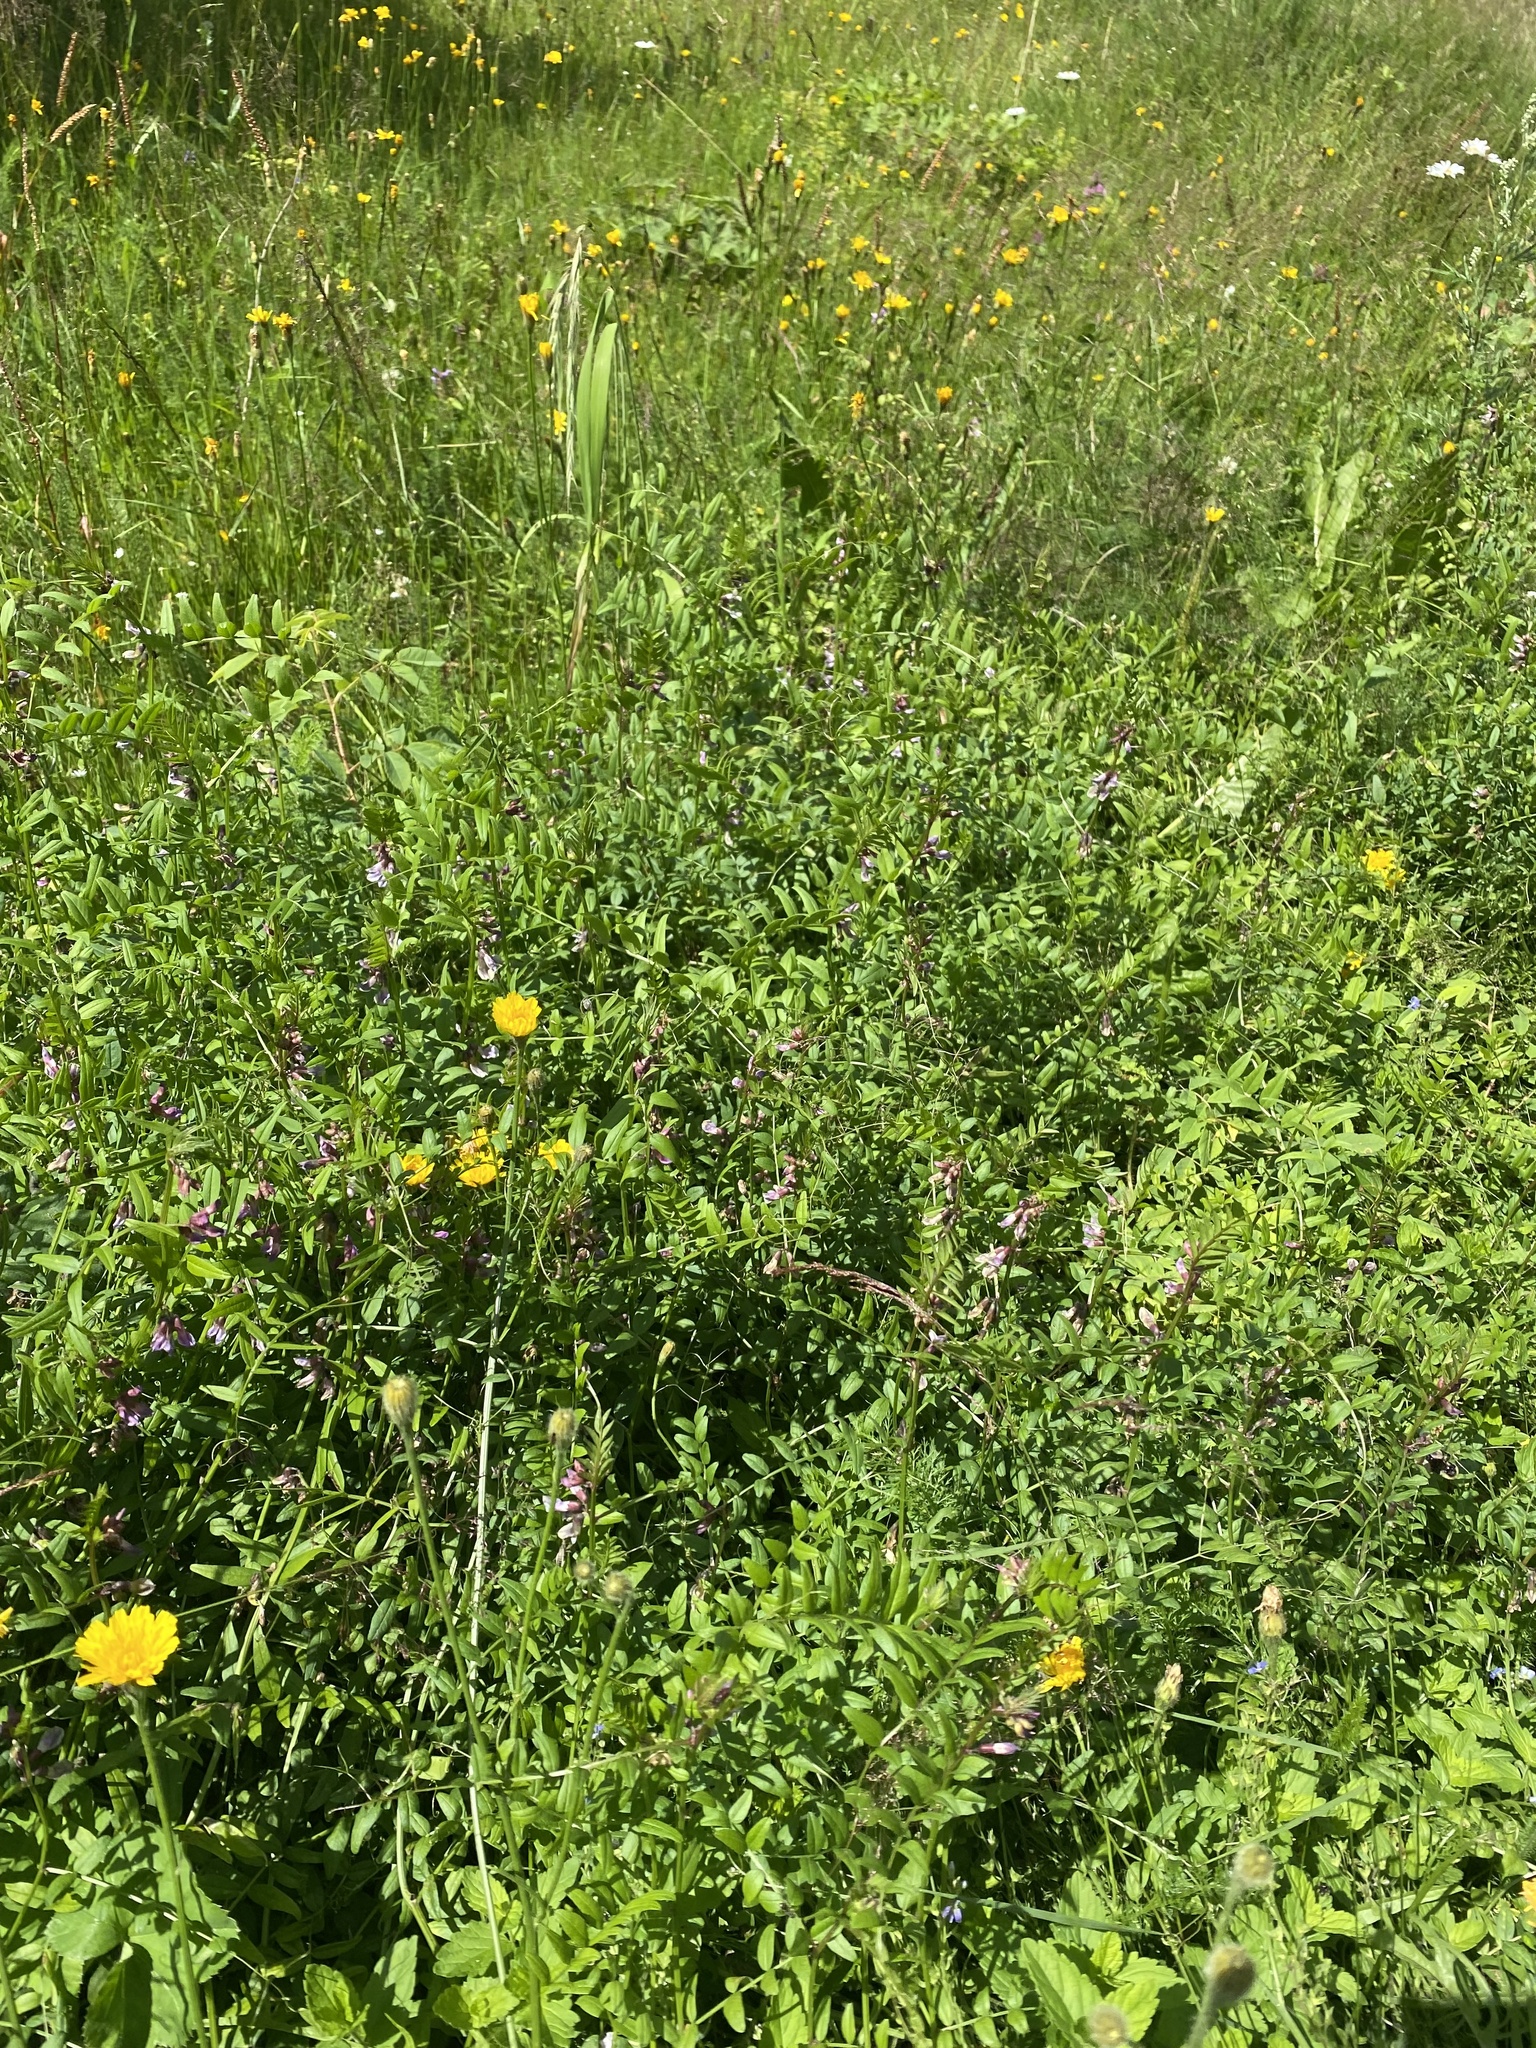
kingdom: Plantae
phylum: Tracheophyta
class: Magnoliopsida
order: Fabales
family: Fabaceae
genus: Vicia
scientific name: Vicia sepium
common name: Bush vetch
